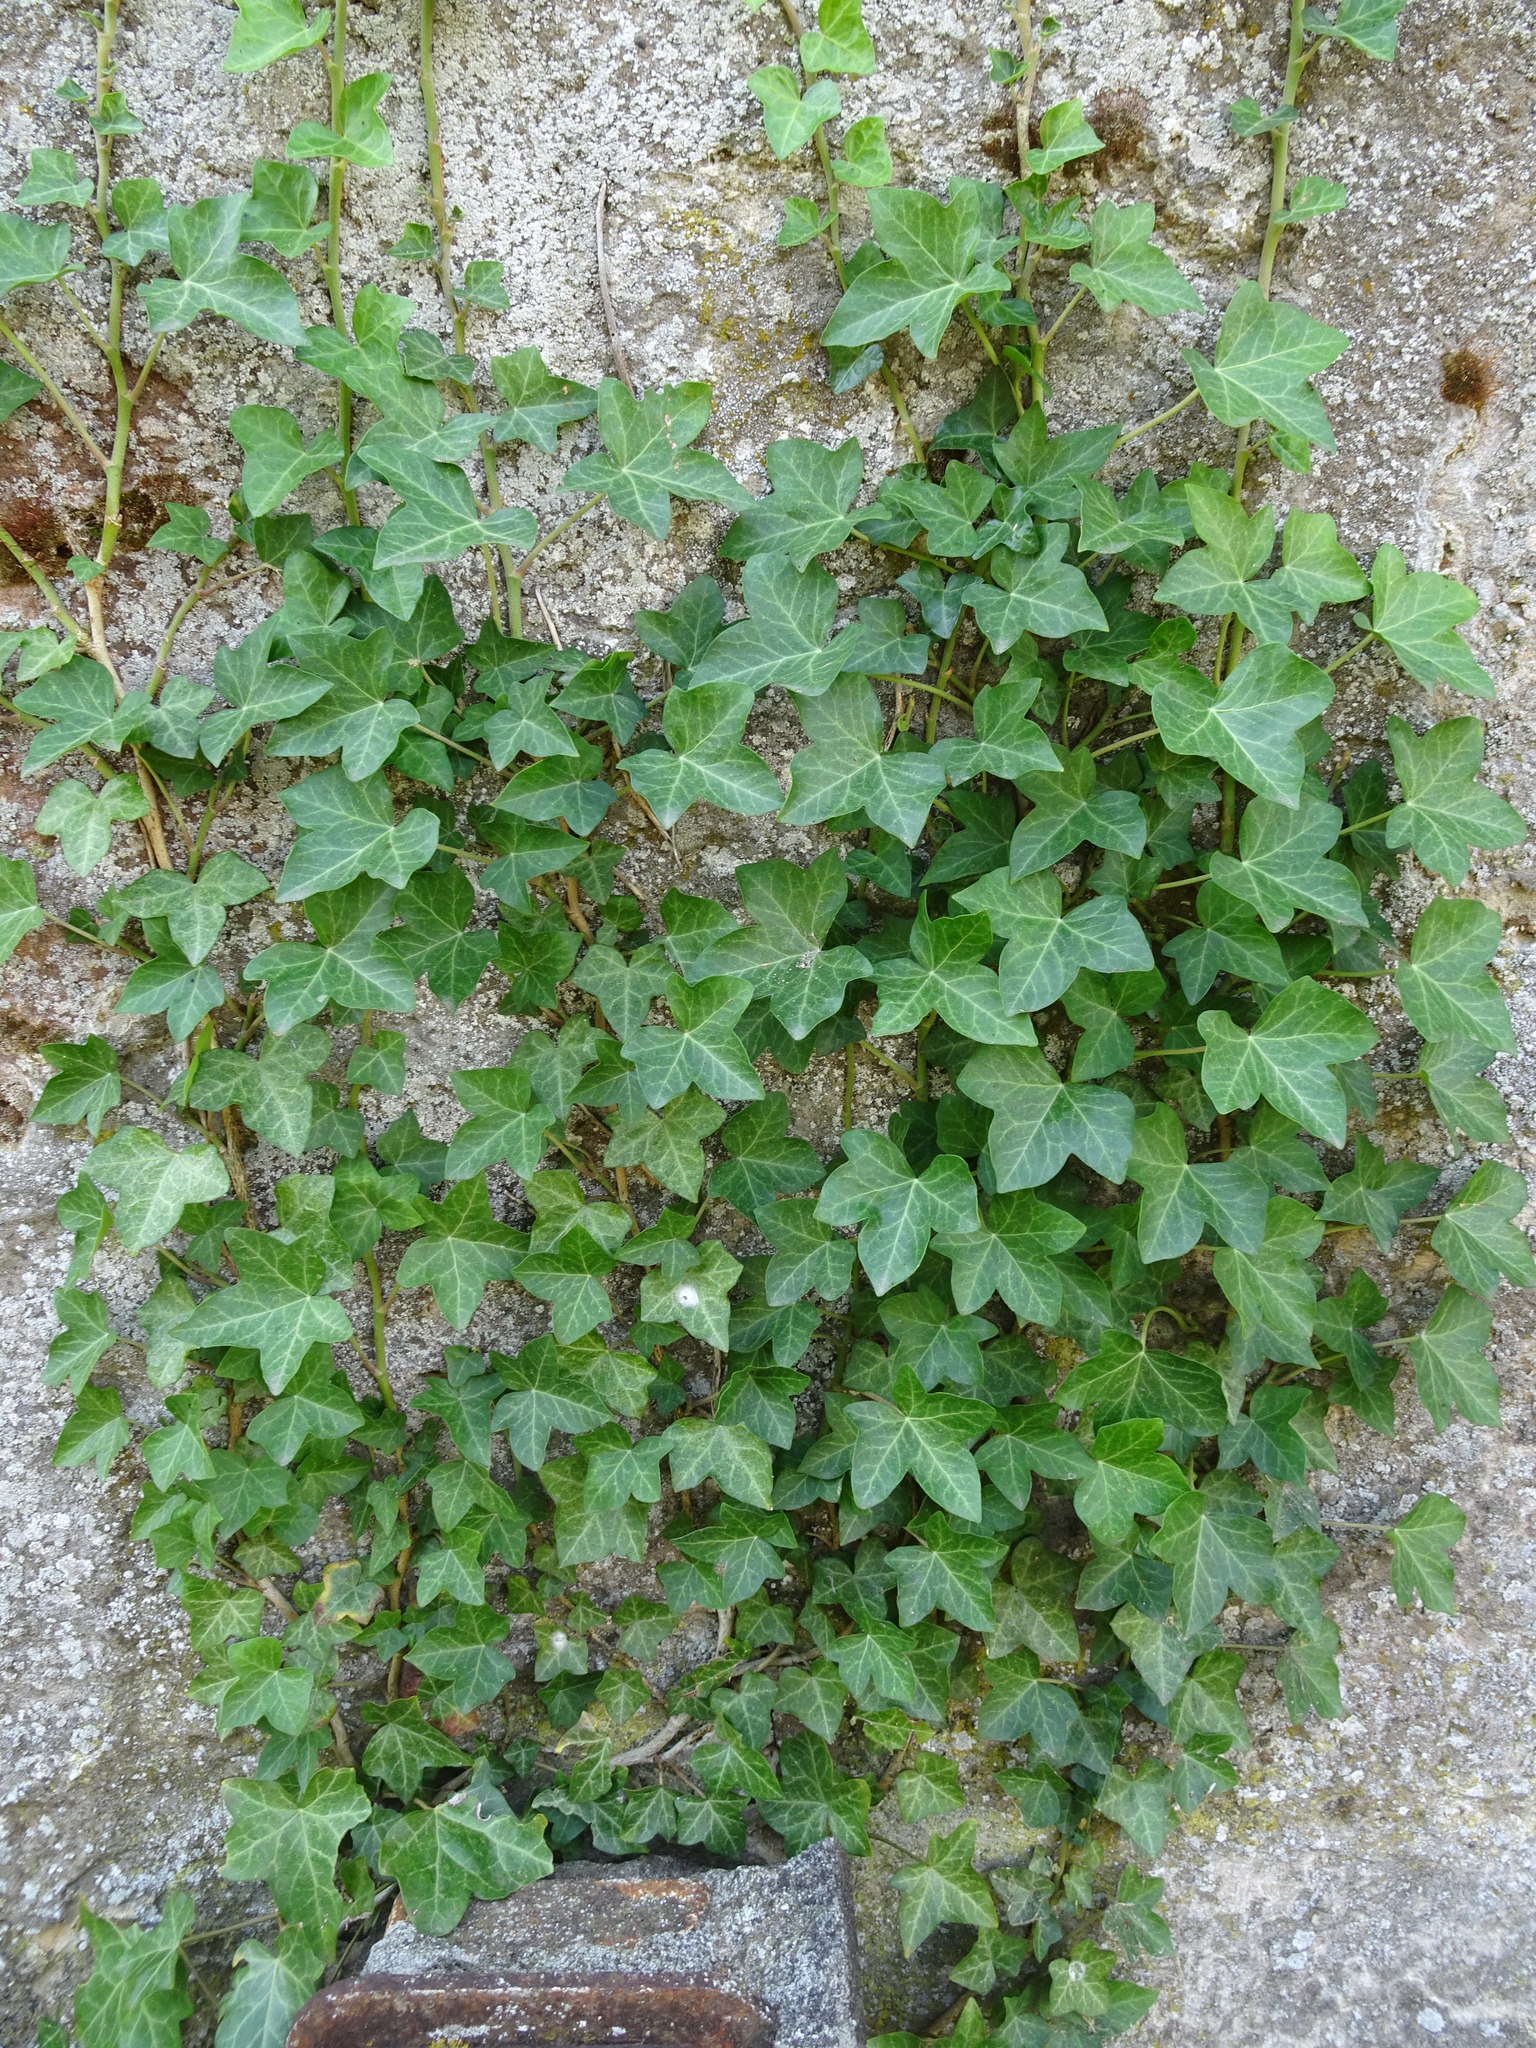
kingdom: Plantae
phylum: Tracheophyta
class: Magnoliopsida
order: Apiales
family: Araliaceae
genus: Hedera
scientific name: Hedera helix
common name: Ivy
